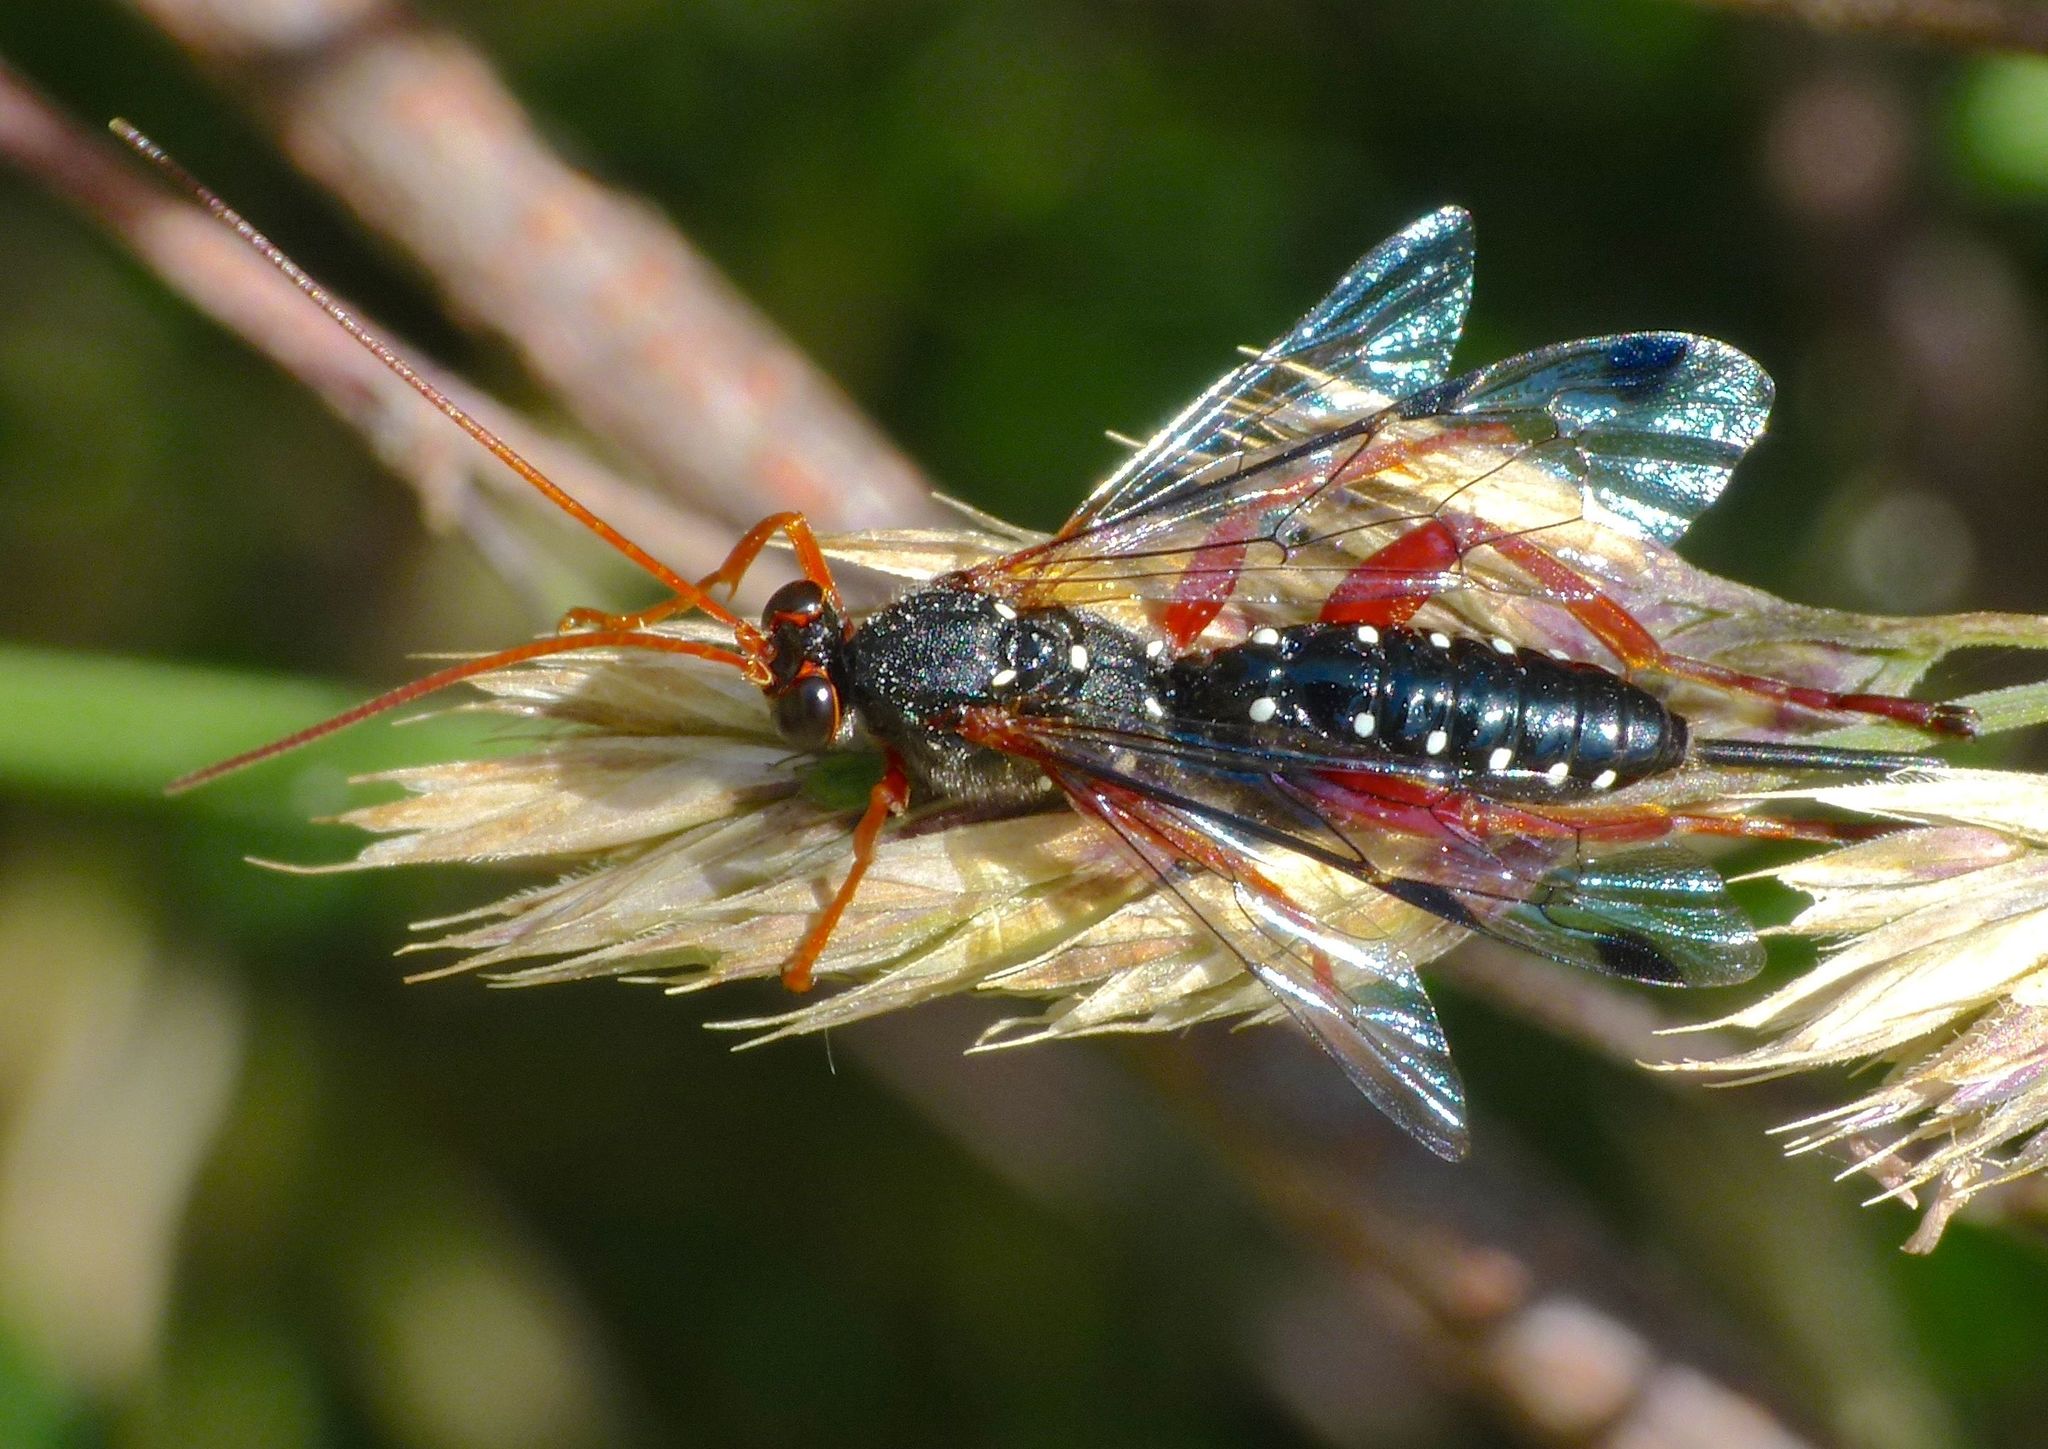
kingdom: Animalia
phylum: Arthropoda
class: Insecta
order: Hymenoptera
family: Ichneumonidae
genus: Echthromorpha
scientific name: Echthromorpha intricatoria
